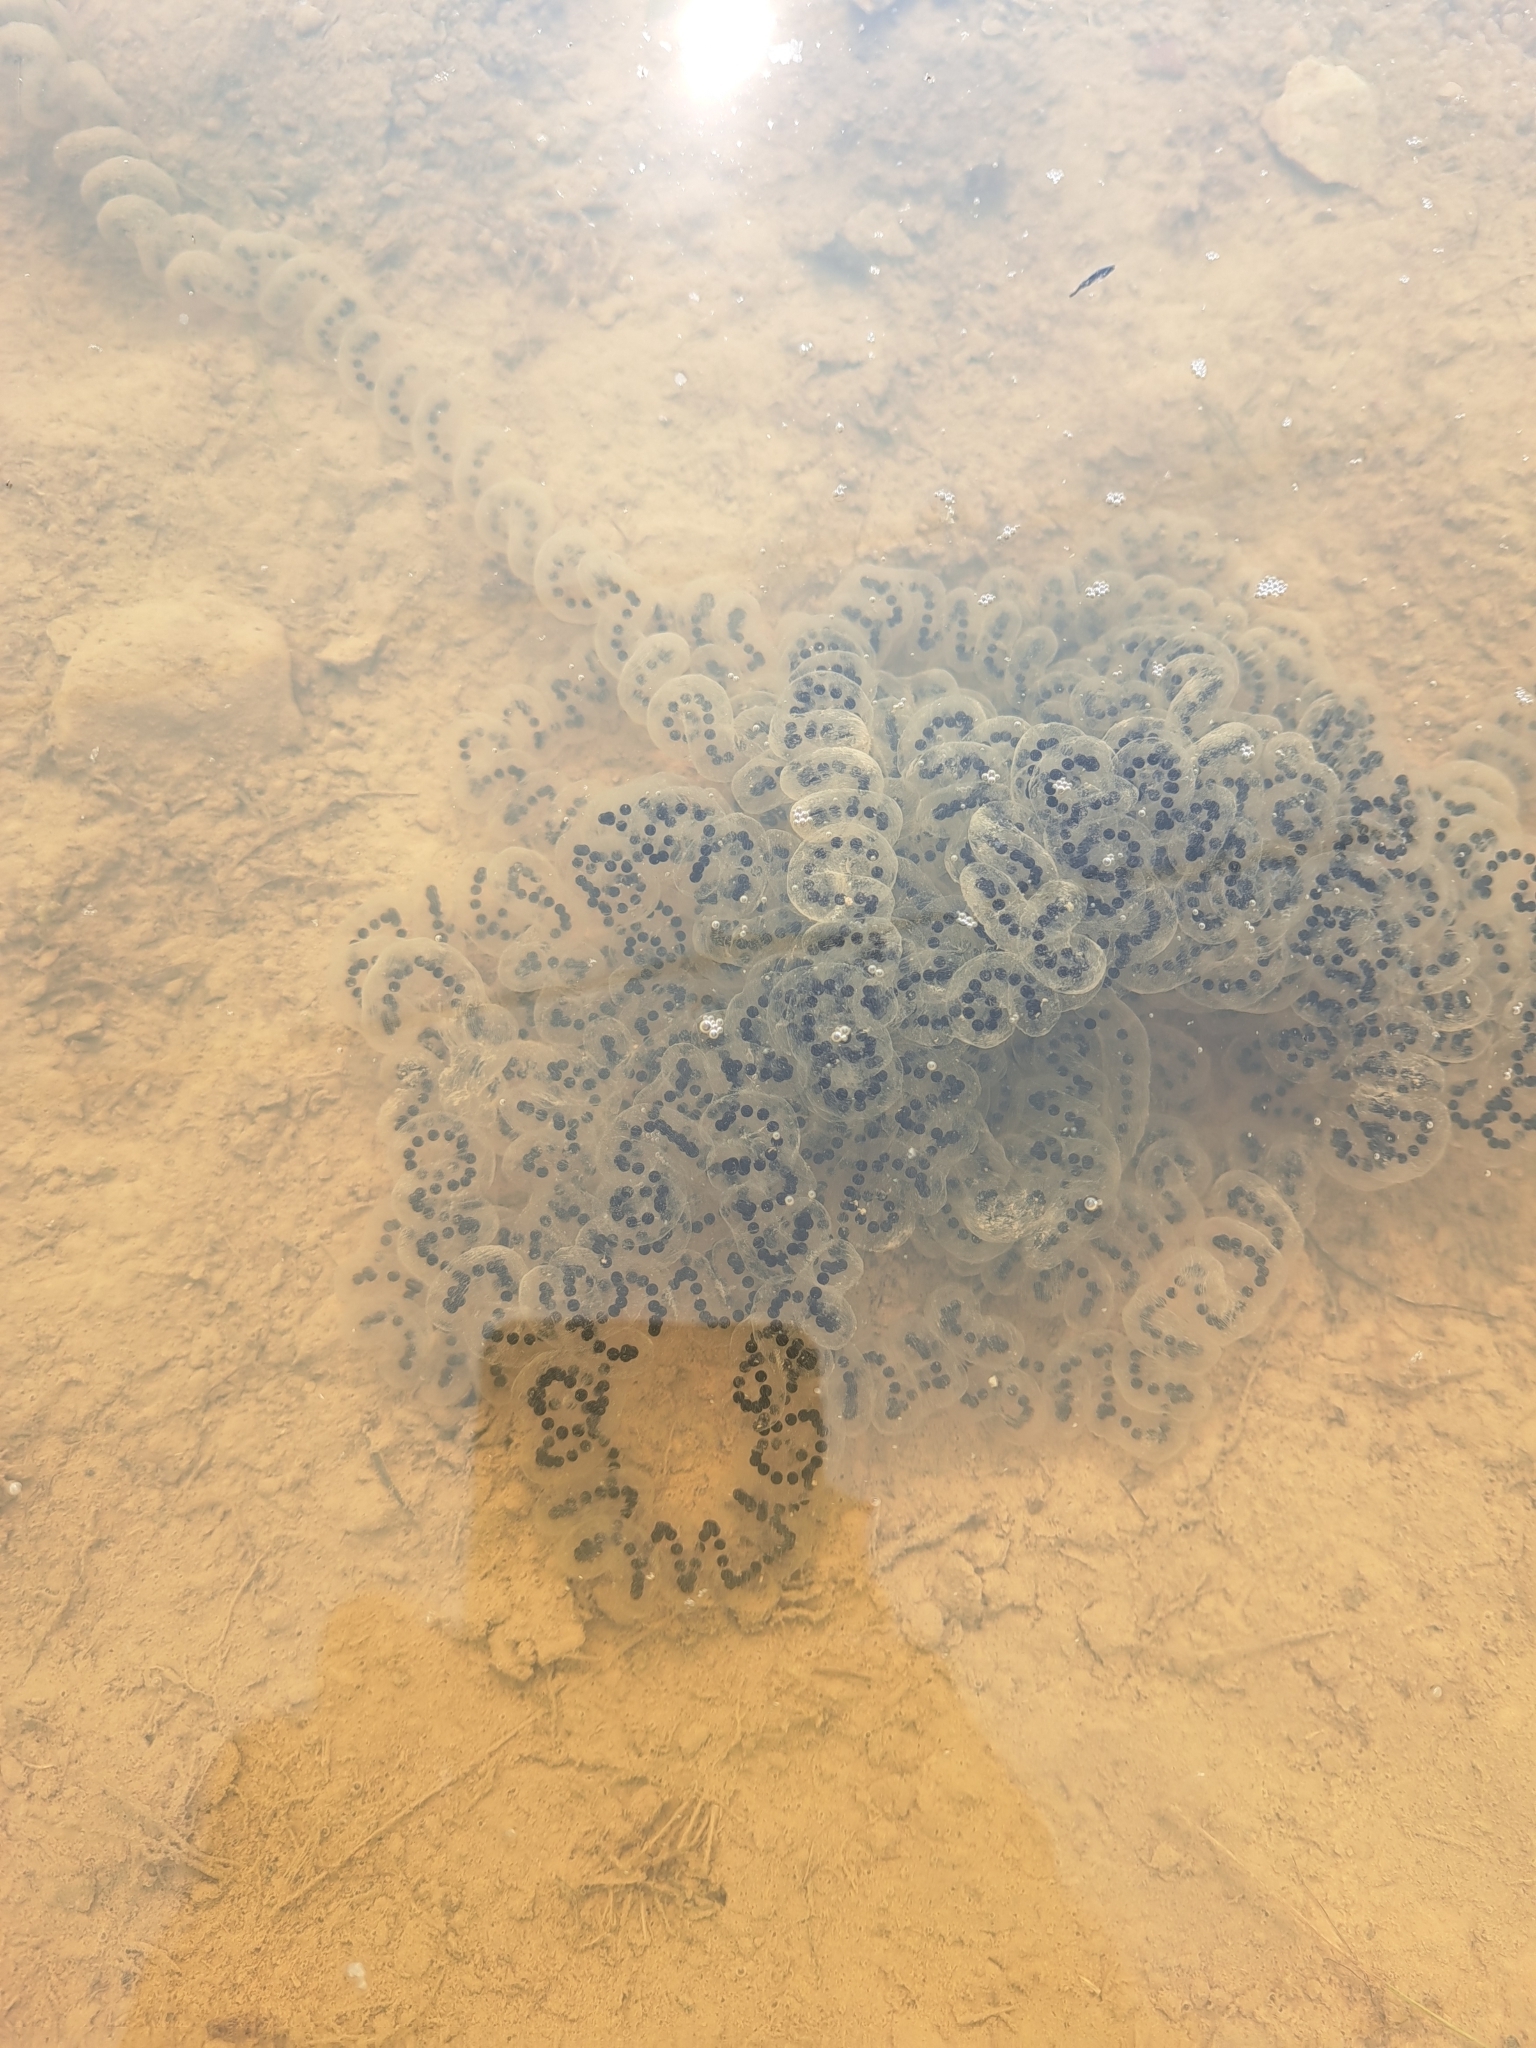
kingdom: Animalia
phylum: Chordata
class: Amphibia
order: Anura
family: Bufonidae
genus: Anaxyrus
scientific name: Anaxyrus
